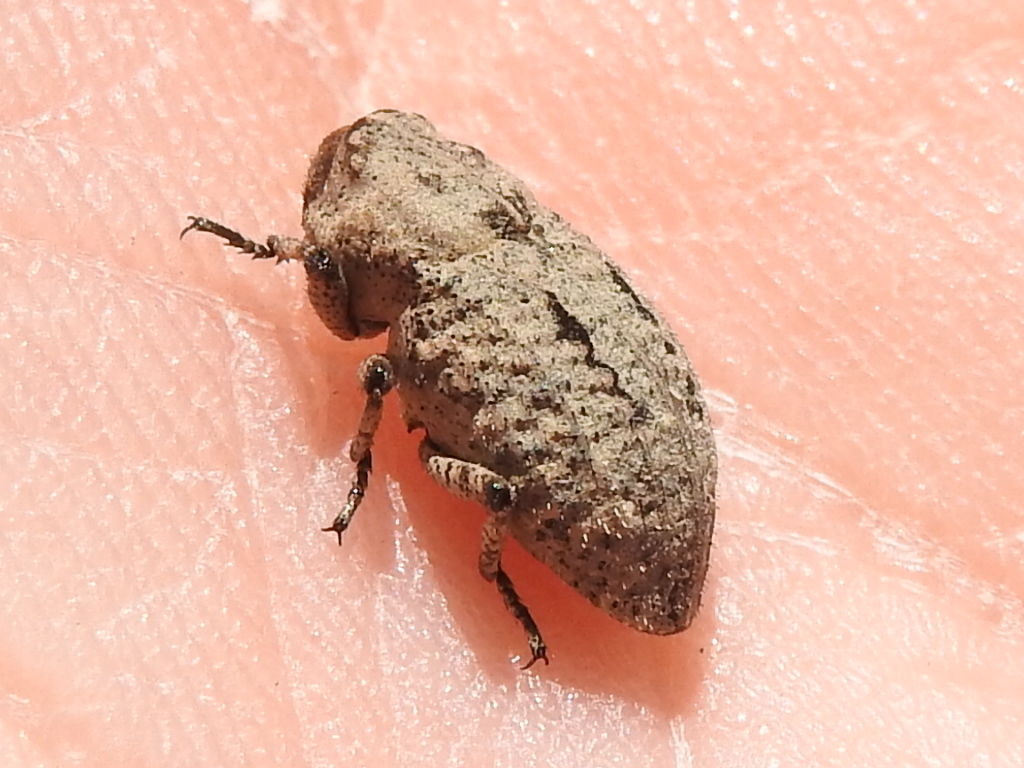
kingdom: Animalia
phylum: Arthropoda
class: Insecta
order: Coleoptera
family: Curculionidae
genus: Thecesternus
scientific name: Thecesternus maculosus
